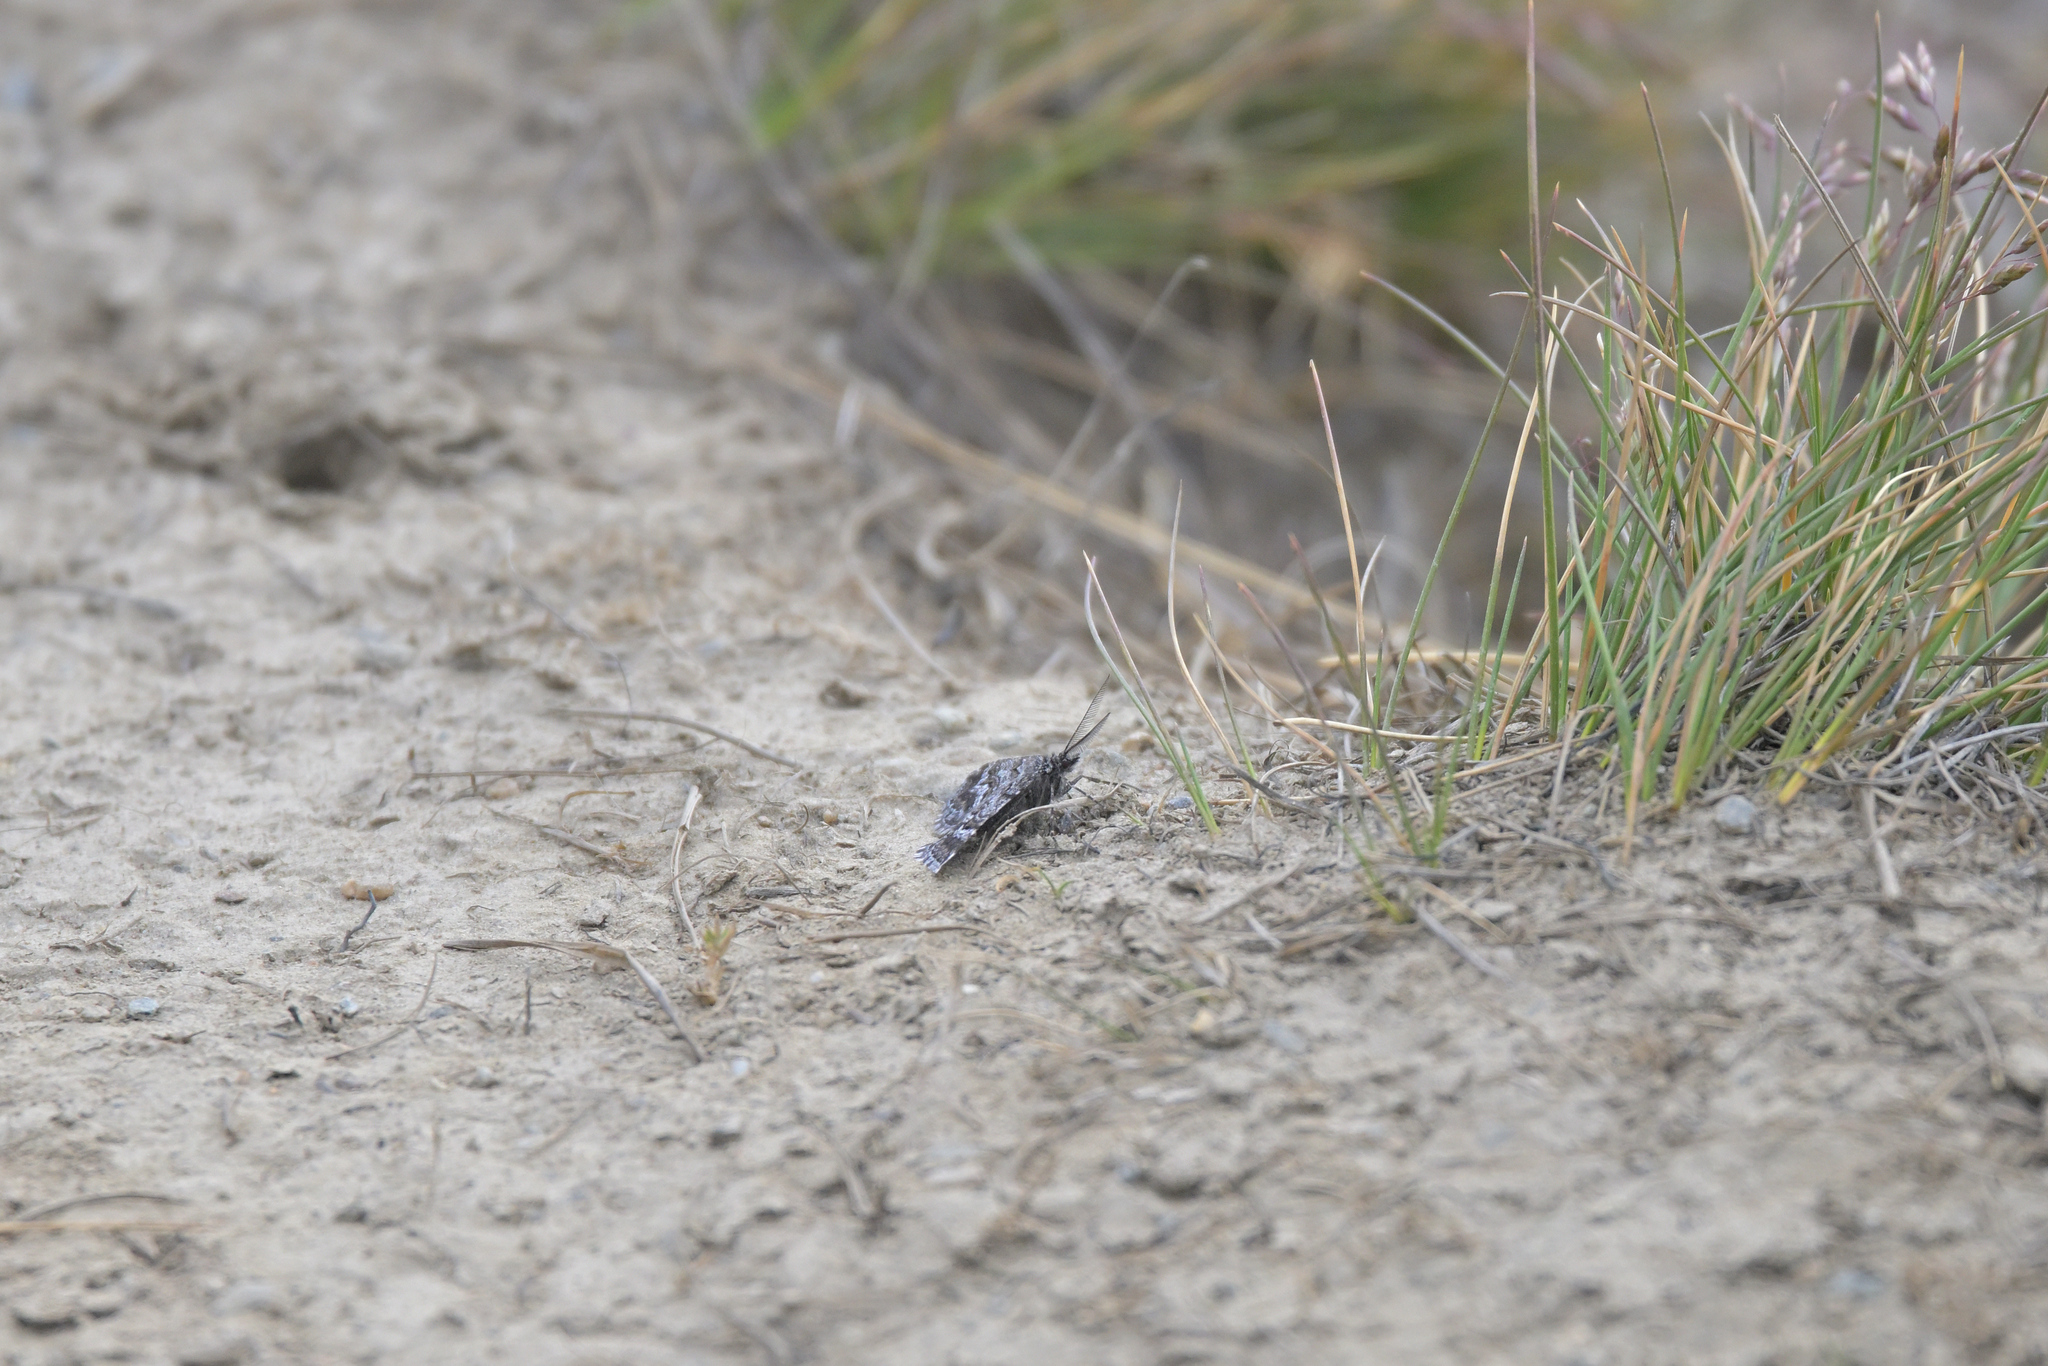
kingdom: Animalia
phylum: Arthropoda
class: Insecta
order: Lepidoptera
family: Geometridae
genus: Aponotoreas
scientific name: Aponotoreas anthracias
